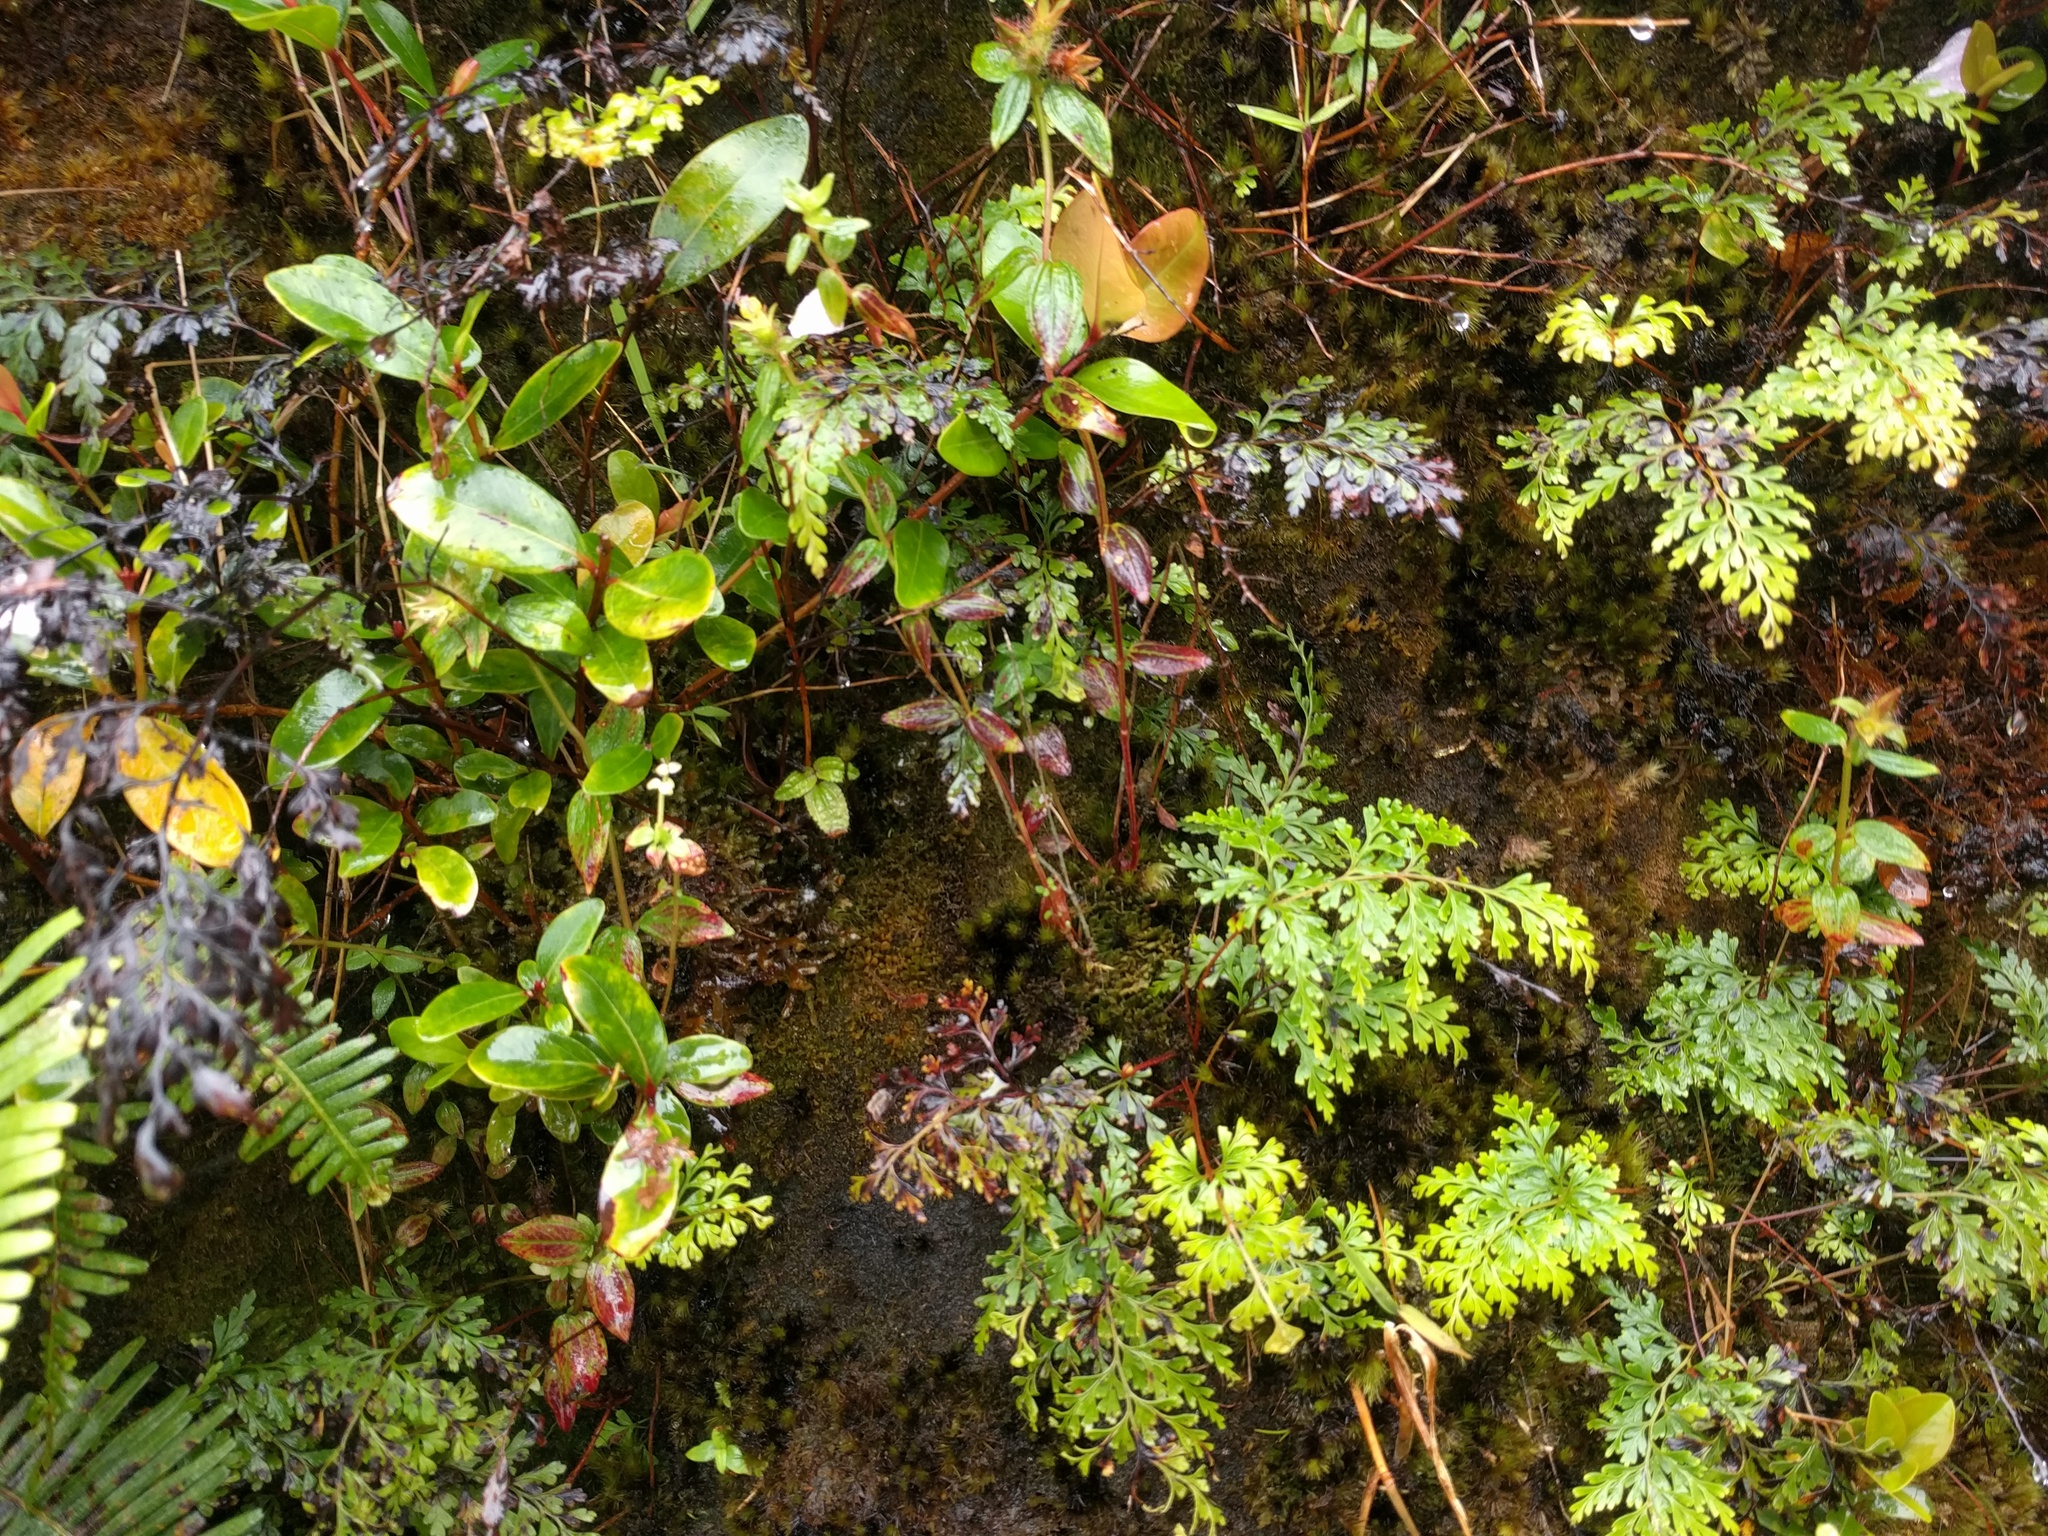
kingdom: Plantae
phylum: Tracheophyta
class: Polypodiopsida
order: Polypodiales
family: Lindsaeaceae
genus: Odontosoria
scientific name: Odontosoria chinensis
